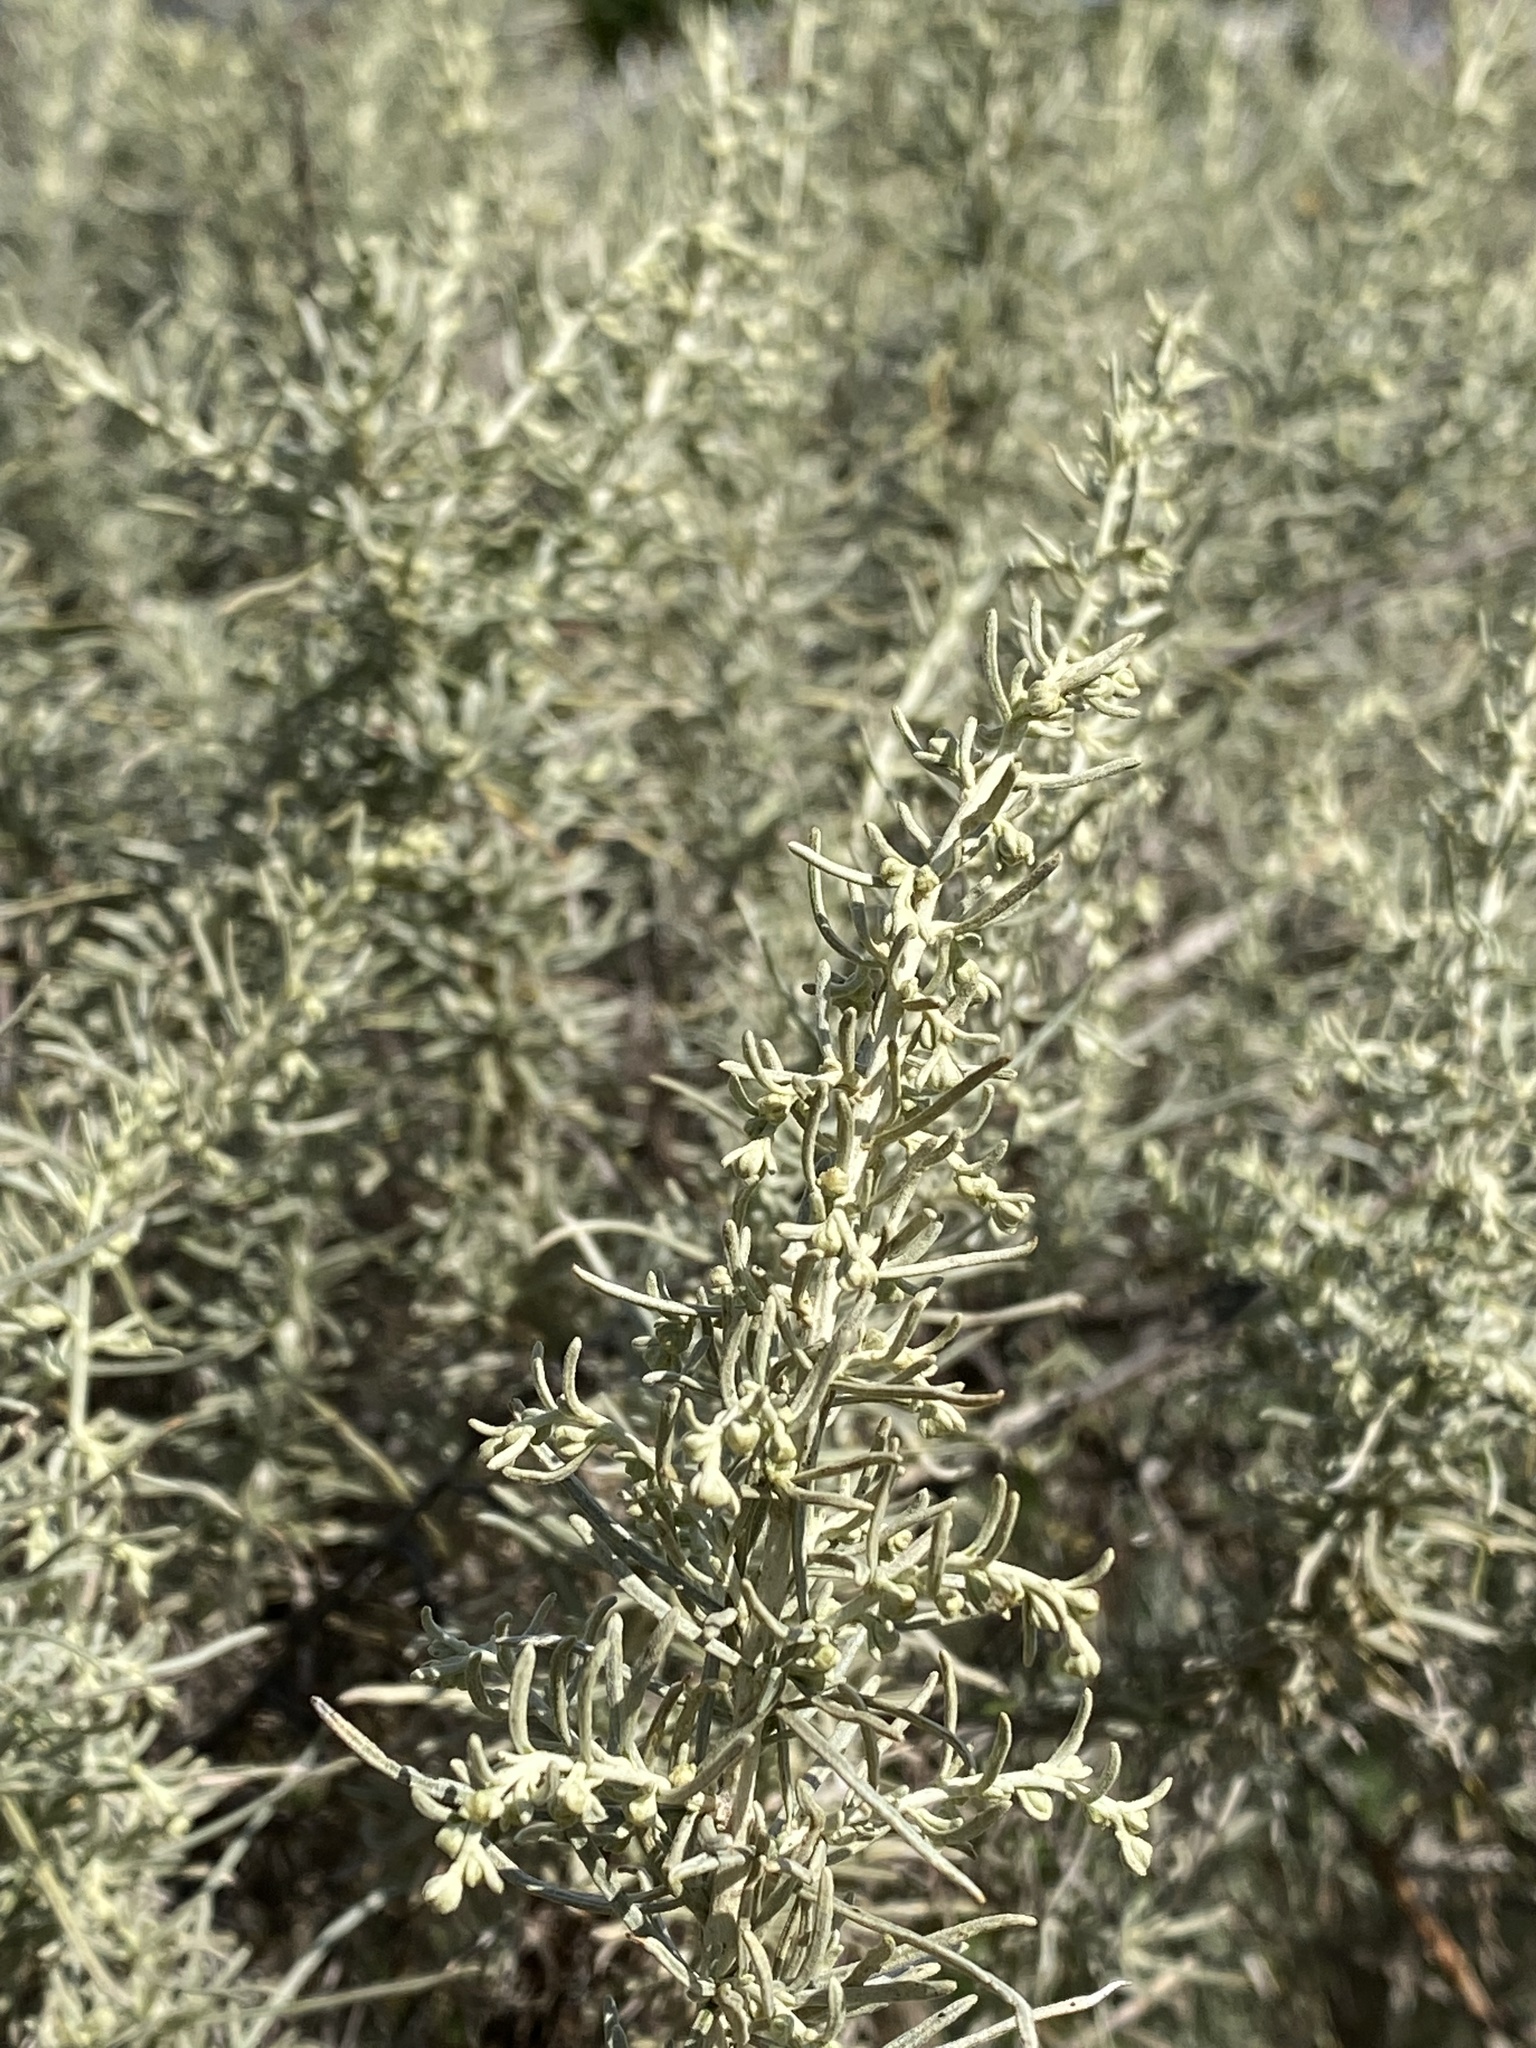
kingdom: Plantae
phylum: Tracheophyta
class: Magnoliopsida
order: Asterales
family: Asteraceae
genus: Artemisia
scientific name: Artemisia californica
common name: California sagebrush
